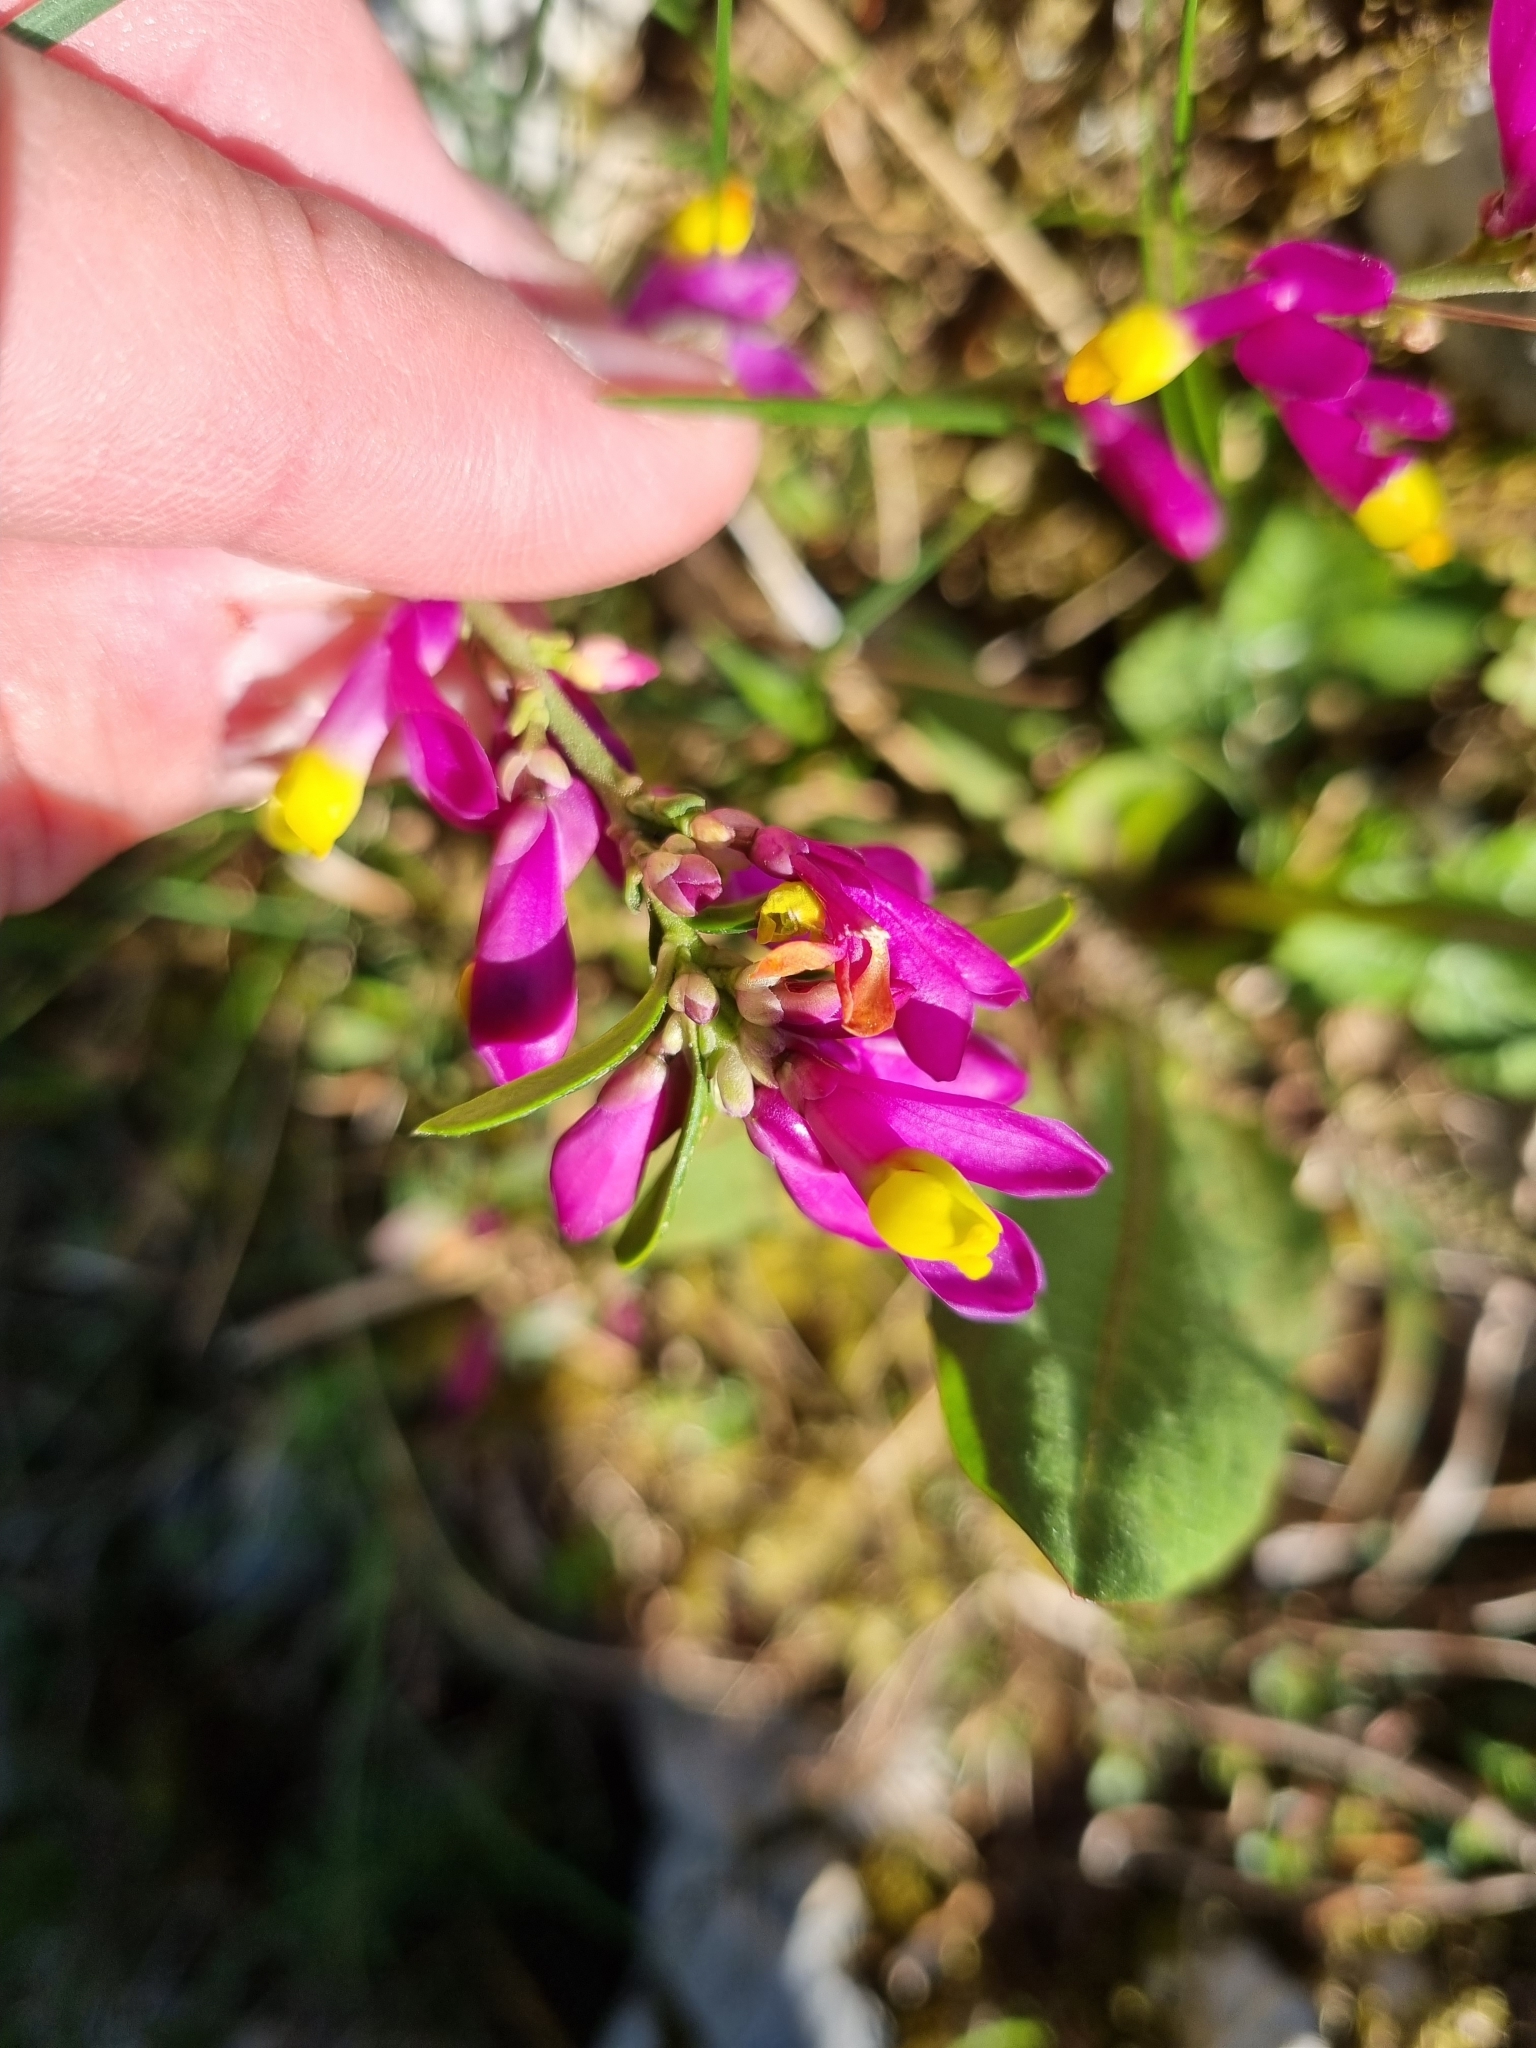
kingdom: Plantae
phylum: Tracheophyta
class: Magnoliopsida
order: Fabales
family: Polygalaceae
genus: Polygaloides
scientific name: Polygaloides chamaebuxus
